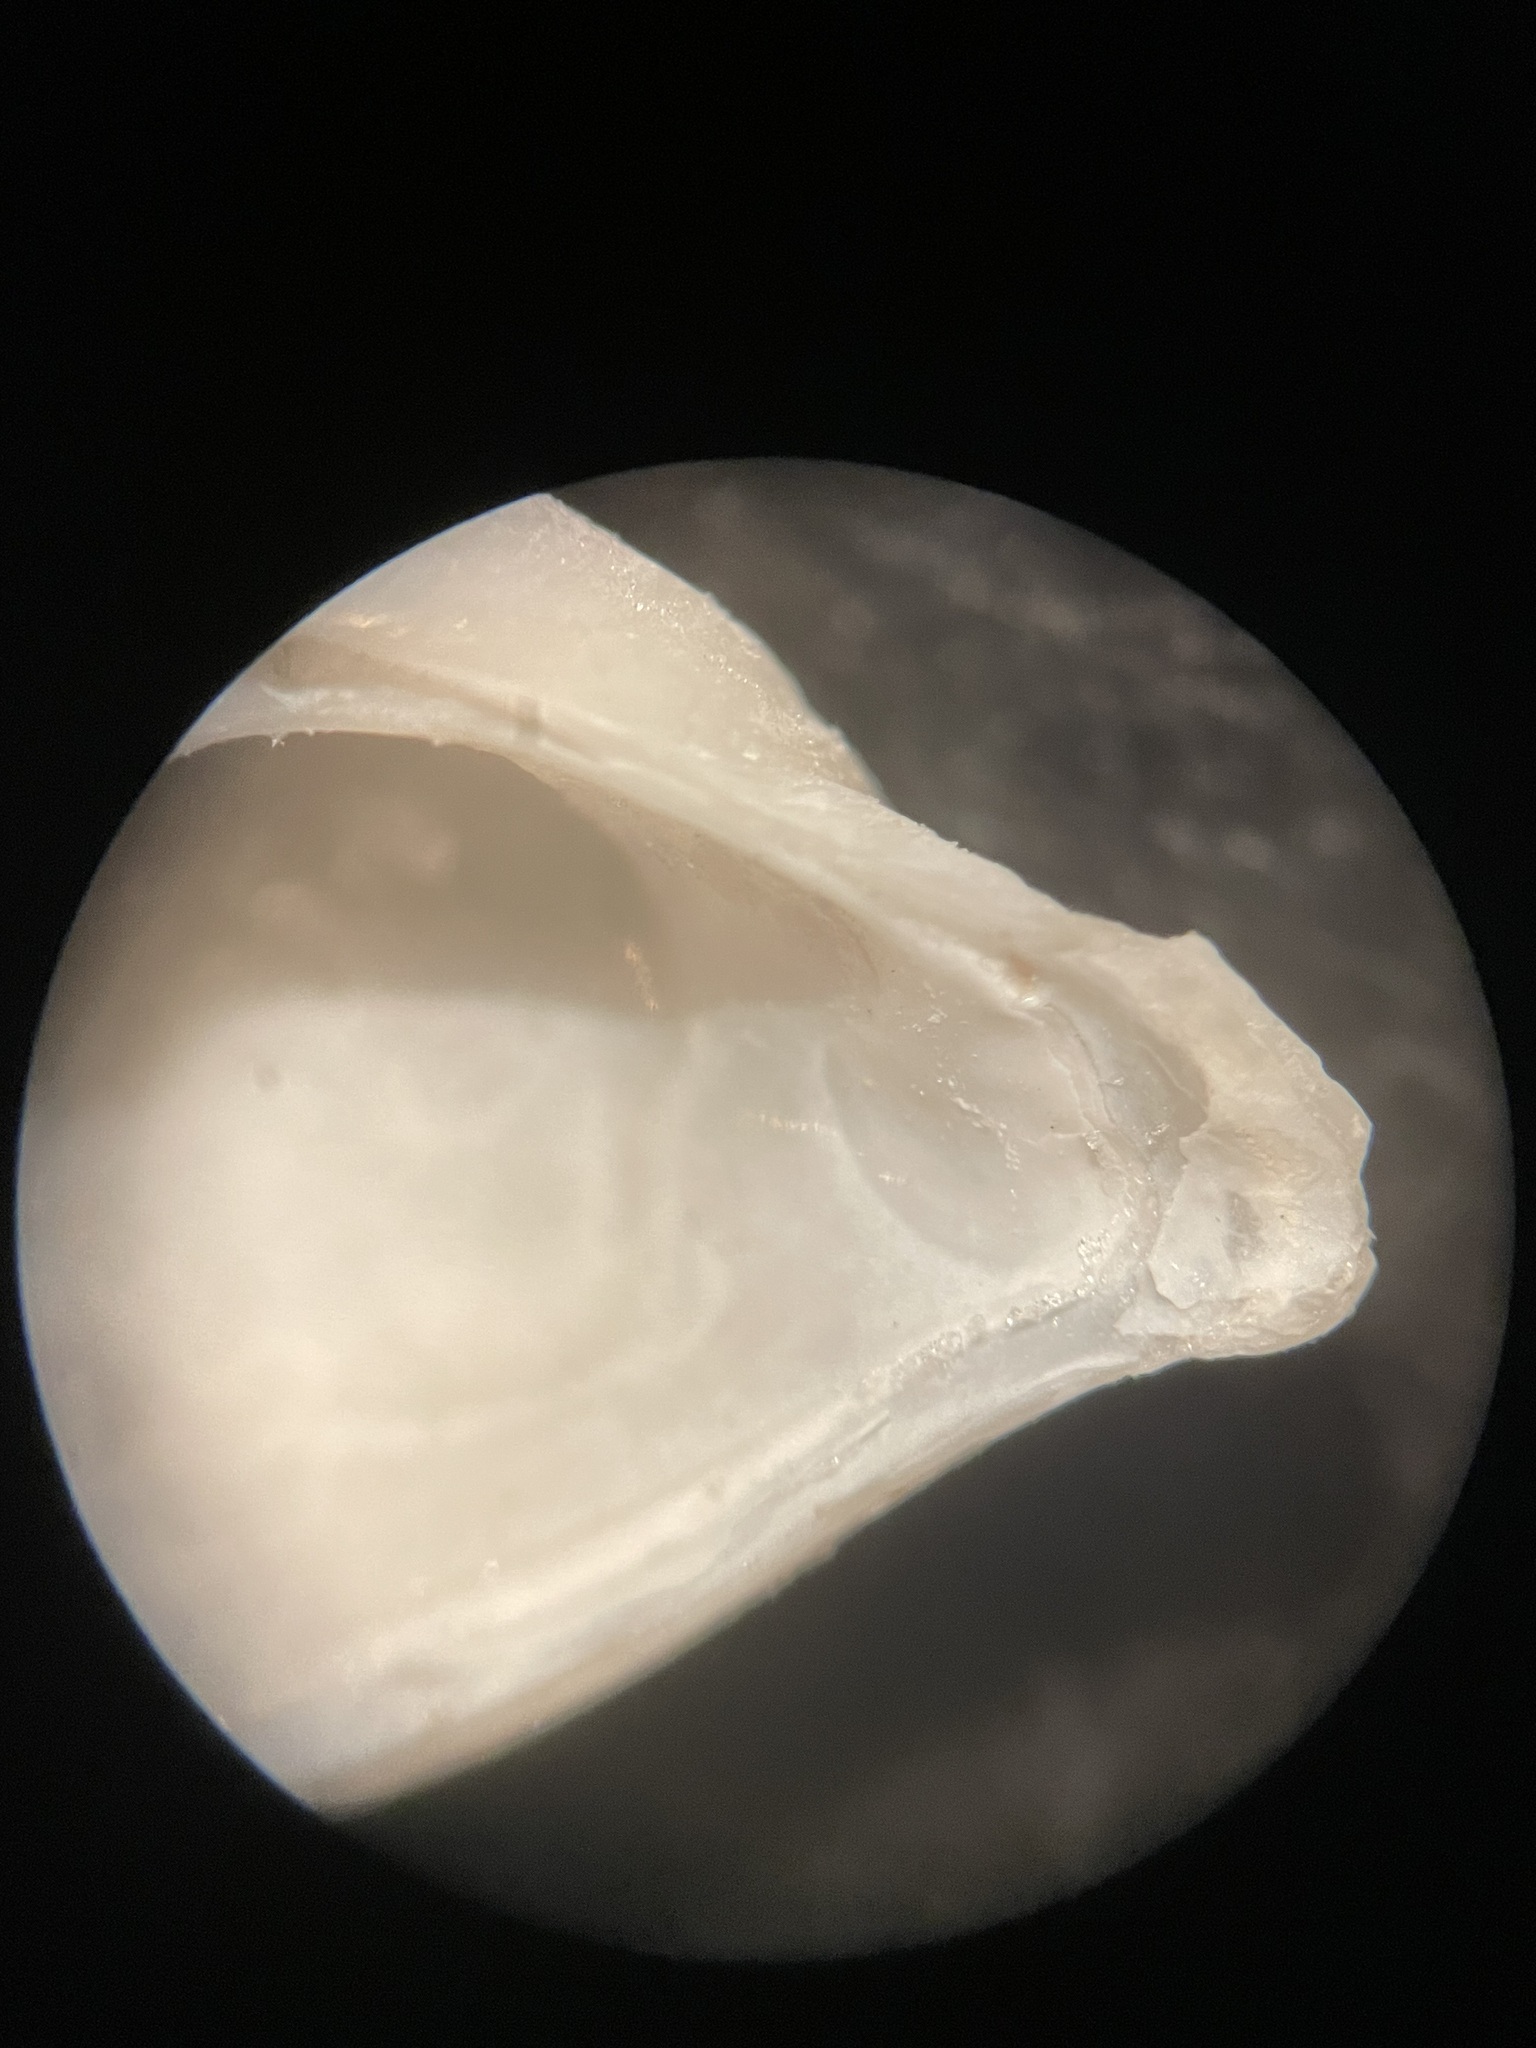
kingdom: Animalia
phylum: Mollusca
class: Bivalvia
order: Myida
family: Corbulidae
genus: Caryocorbula
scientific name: Caryocorbula swiftiana
